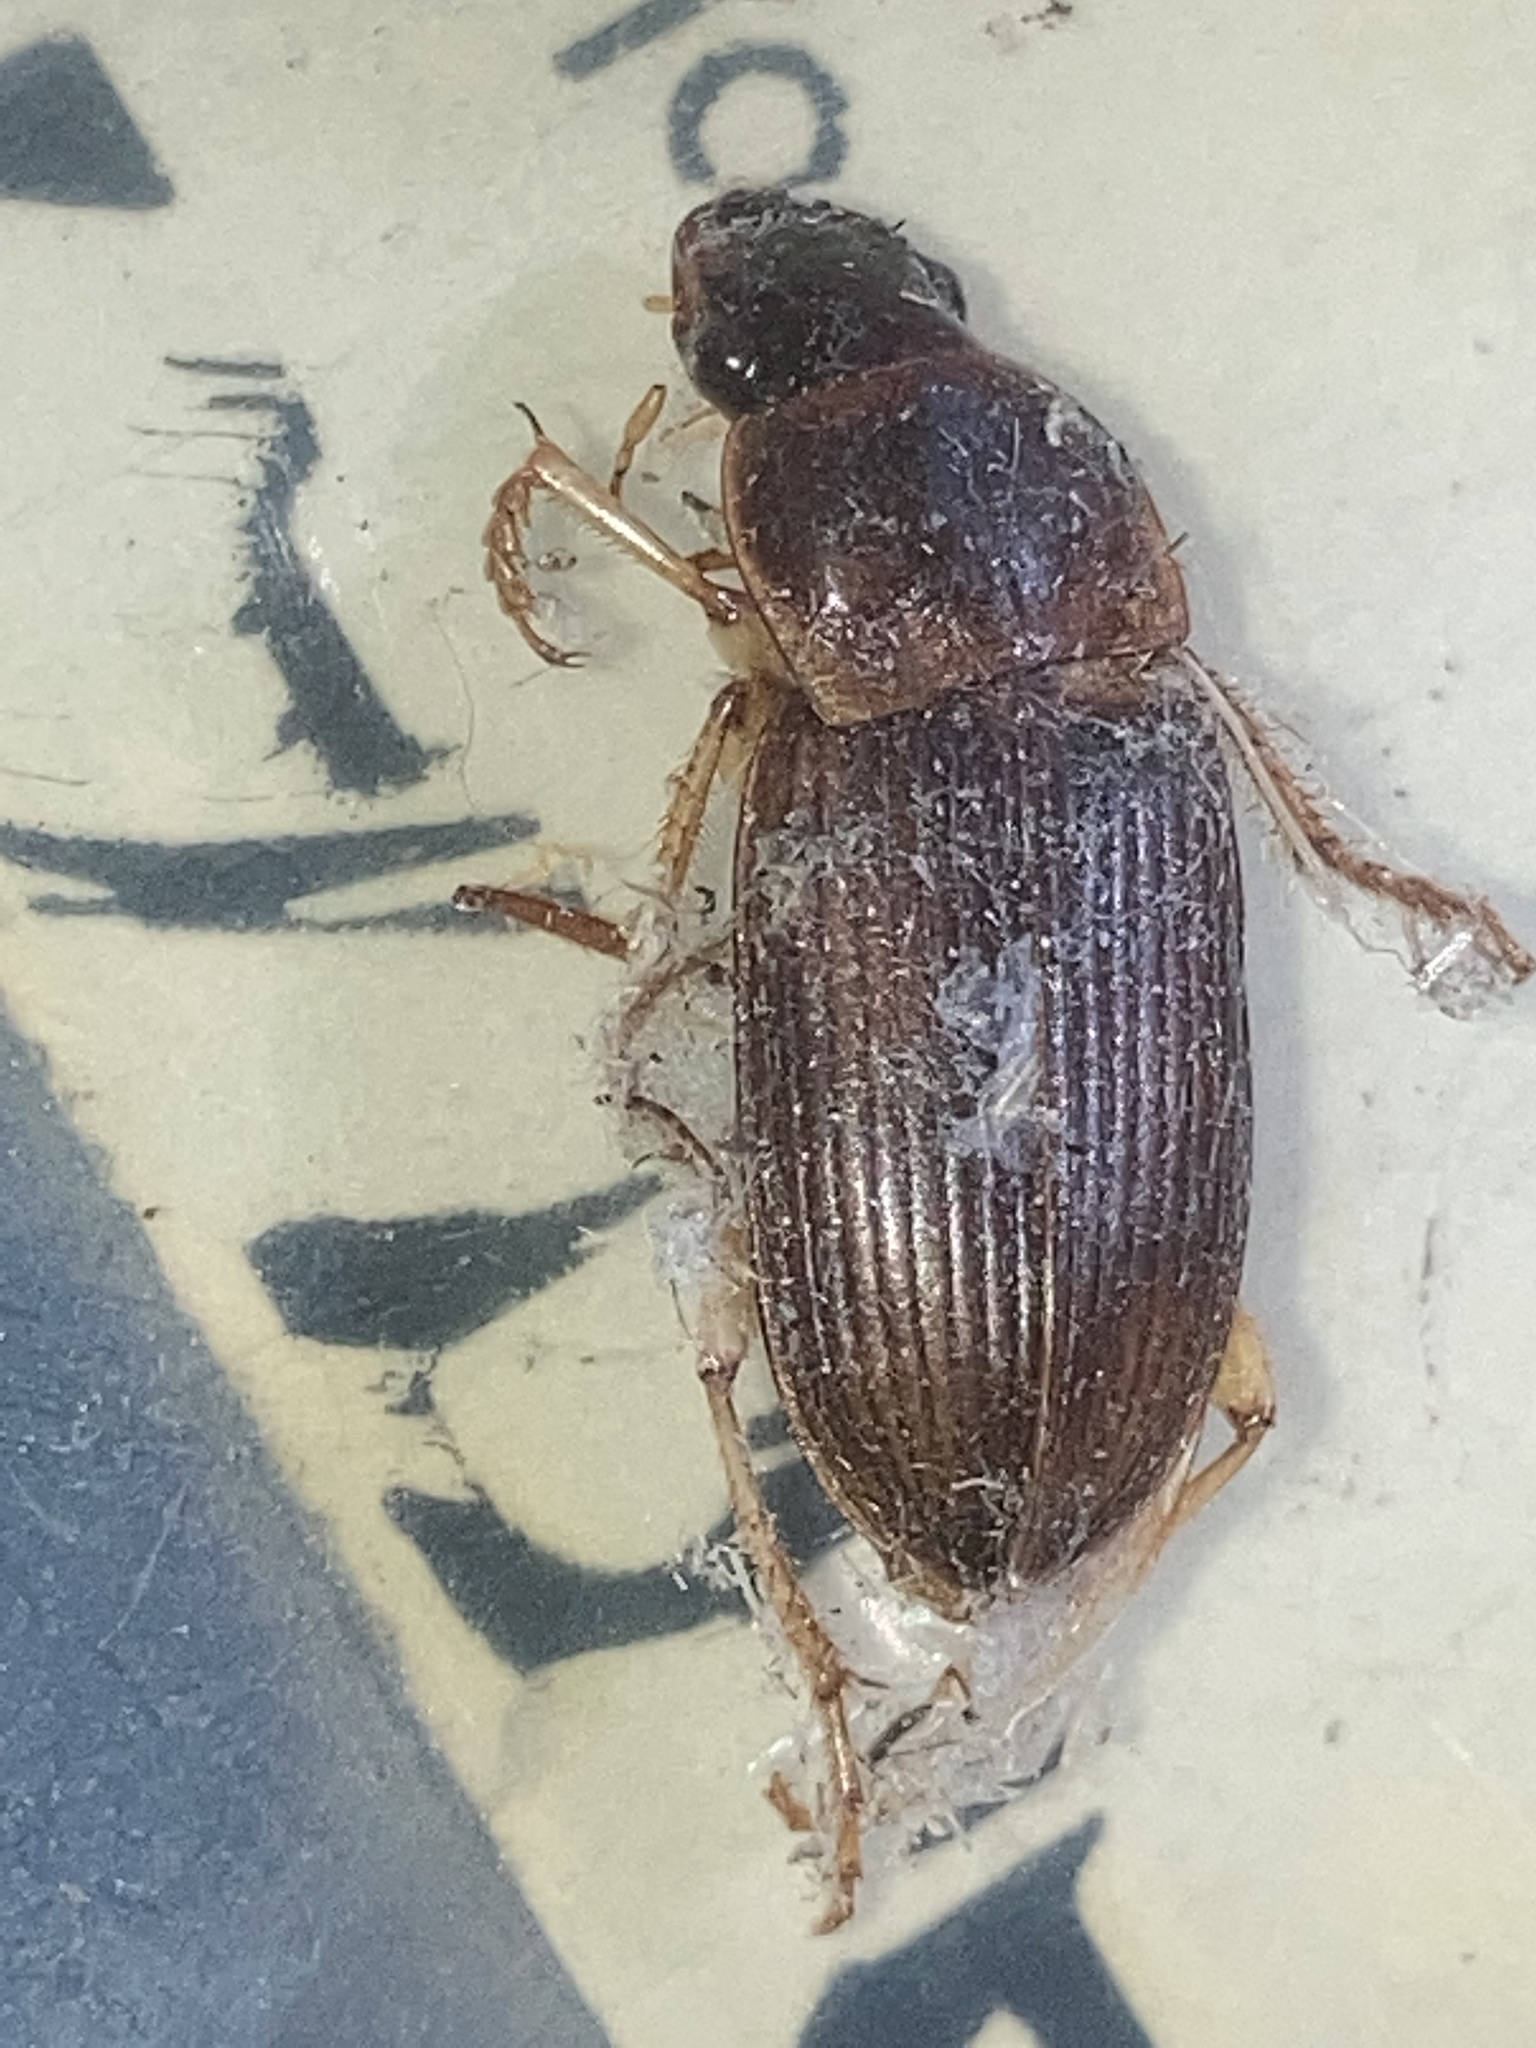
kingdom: Animalia
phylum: Arthropoda
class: Insecta
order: Coleoptera
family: Carabidae
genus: Harpalus
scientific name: Harpalus pensylvanicus
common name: Pennsylvania dingy ground beetle
